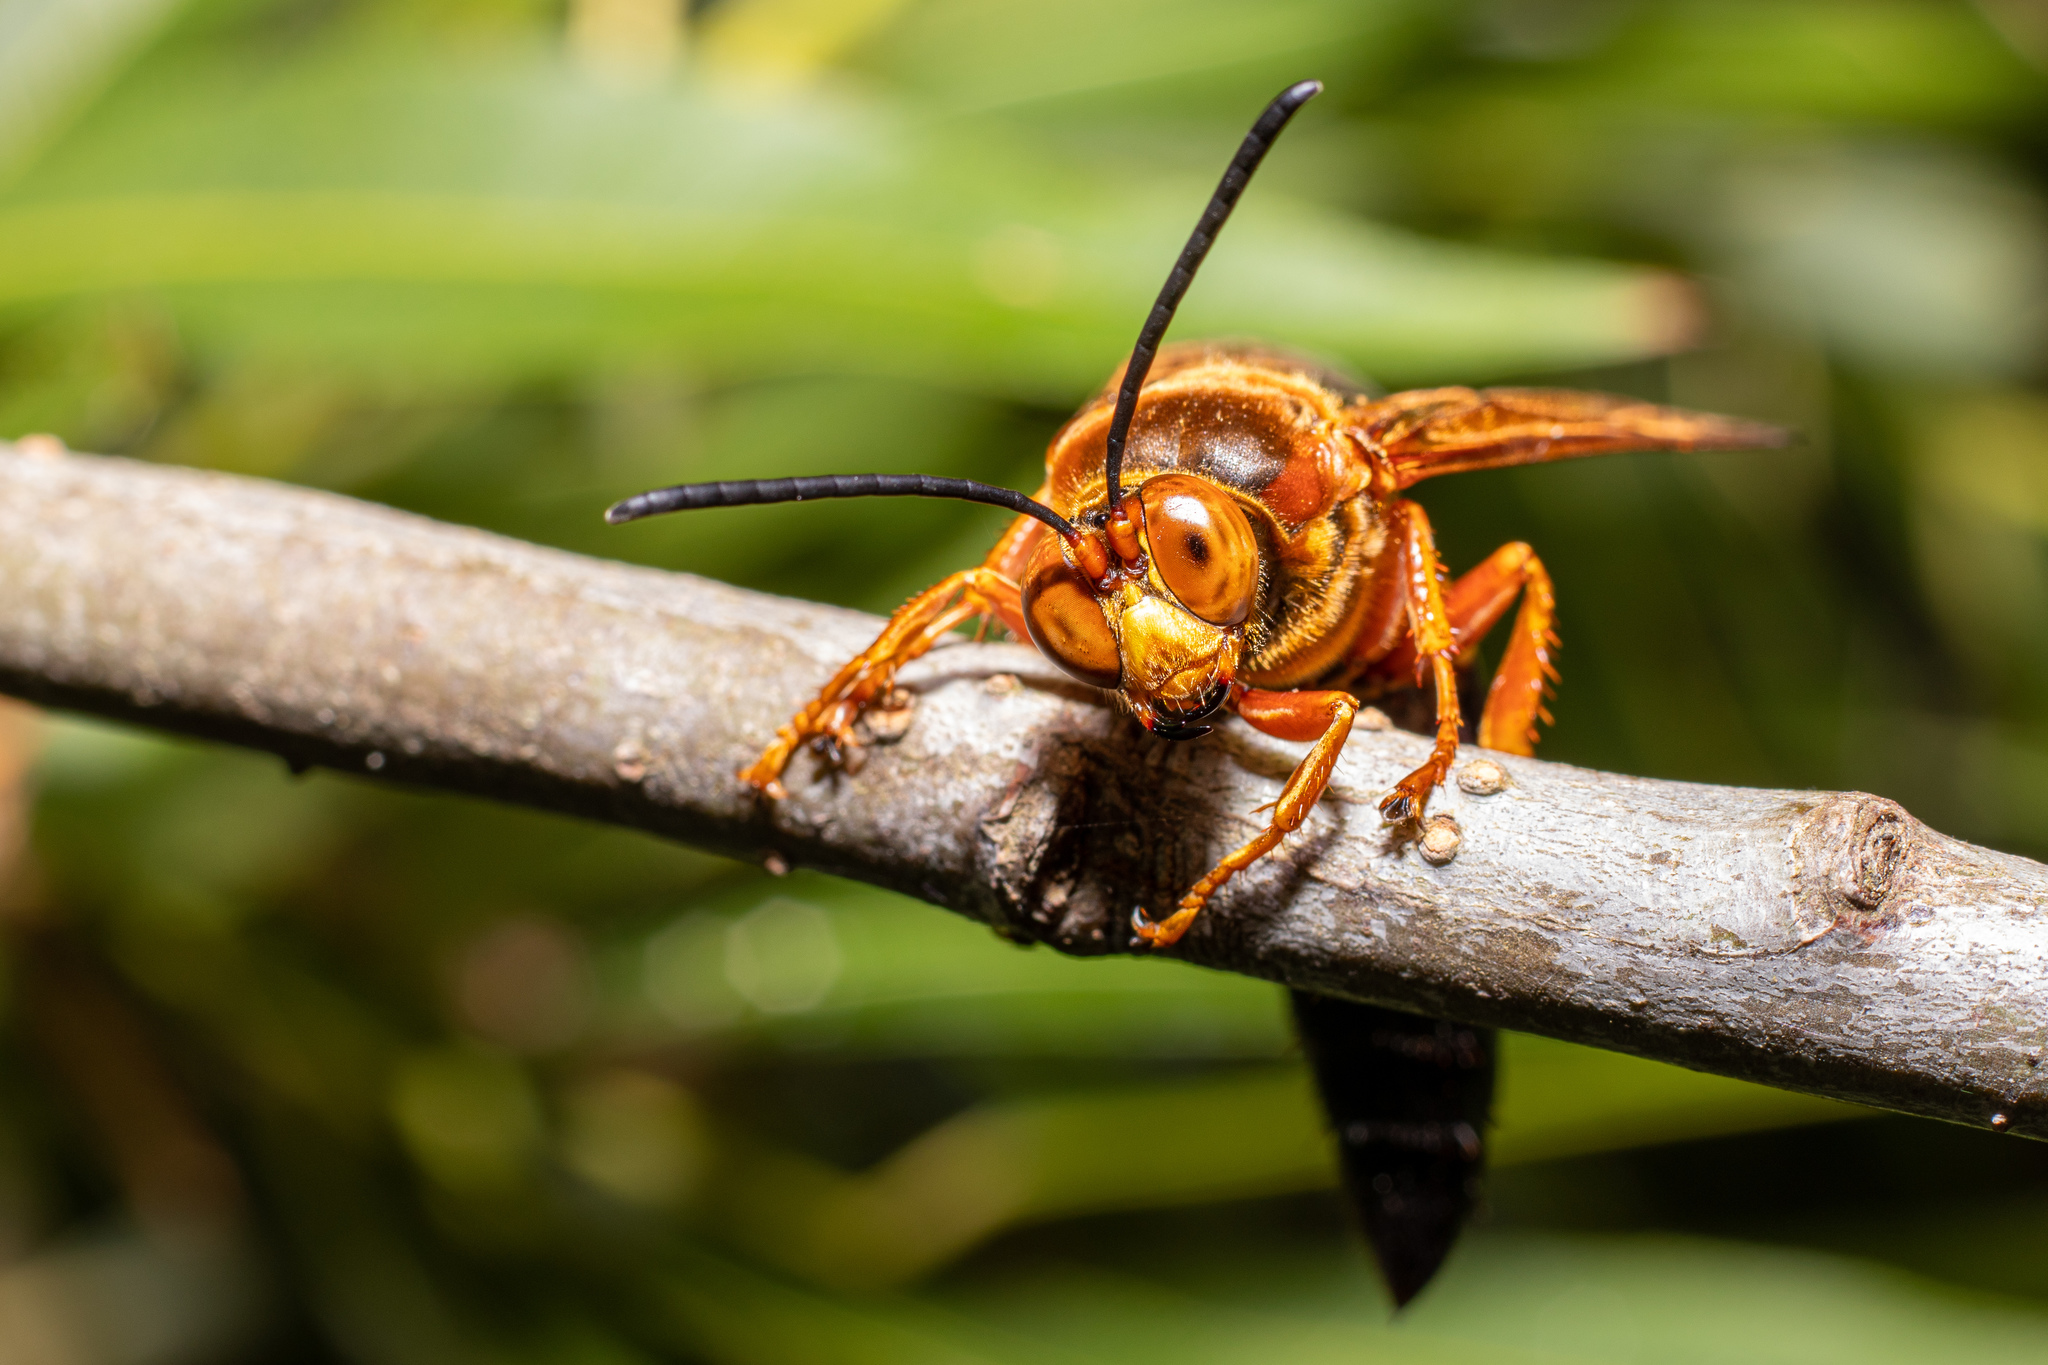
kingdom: Animalia
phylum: Arthropoda
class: Insecta
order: Hymenoptera
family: Crabronidae
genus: Sphecius
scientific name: Sphecius speciosus
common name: Cicada killer
